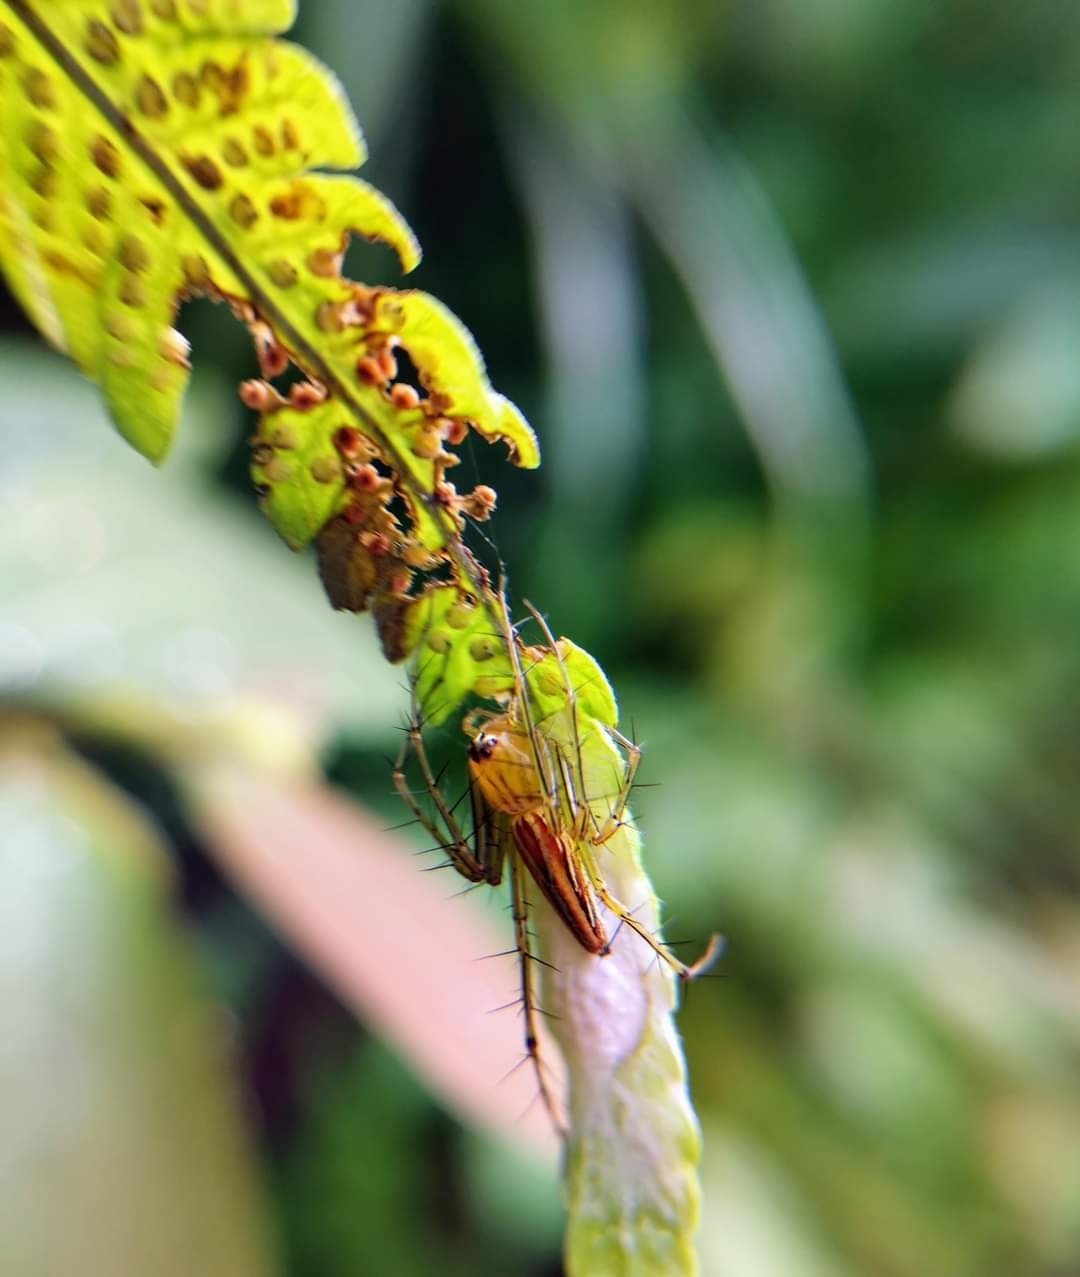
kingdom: Animalia
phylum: Arthropoda
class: Arachnida
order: Araneae
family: Oxyopidae
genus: Oxyopes
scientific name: Oxyopes macilentus
